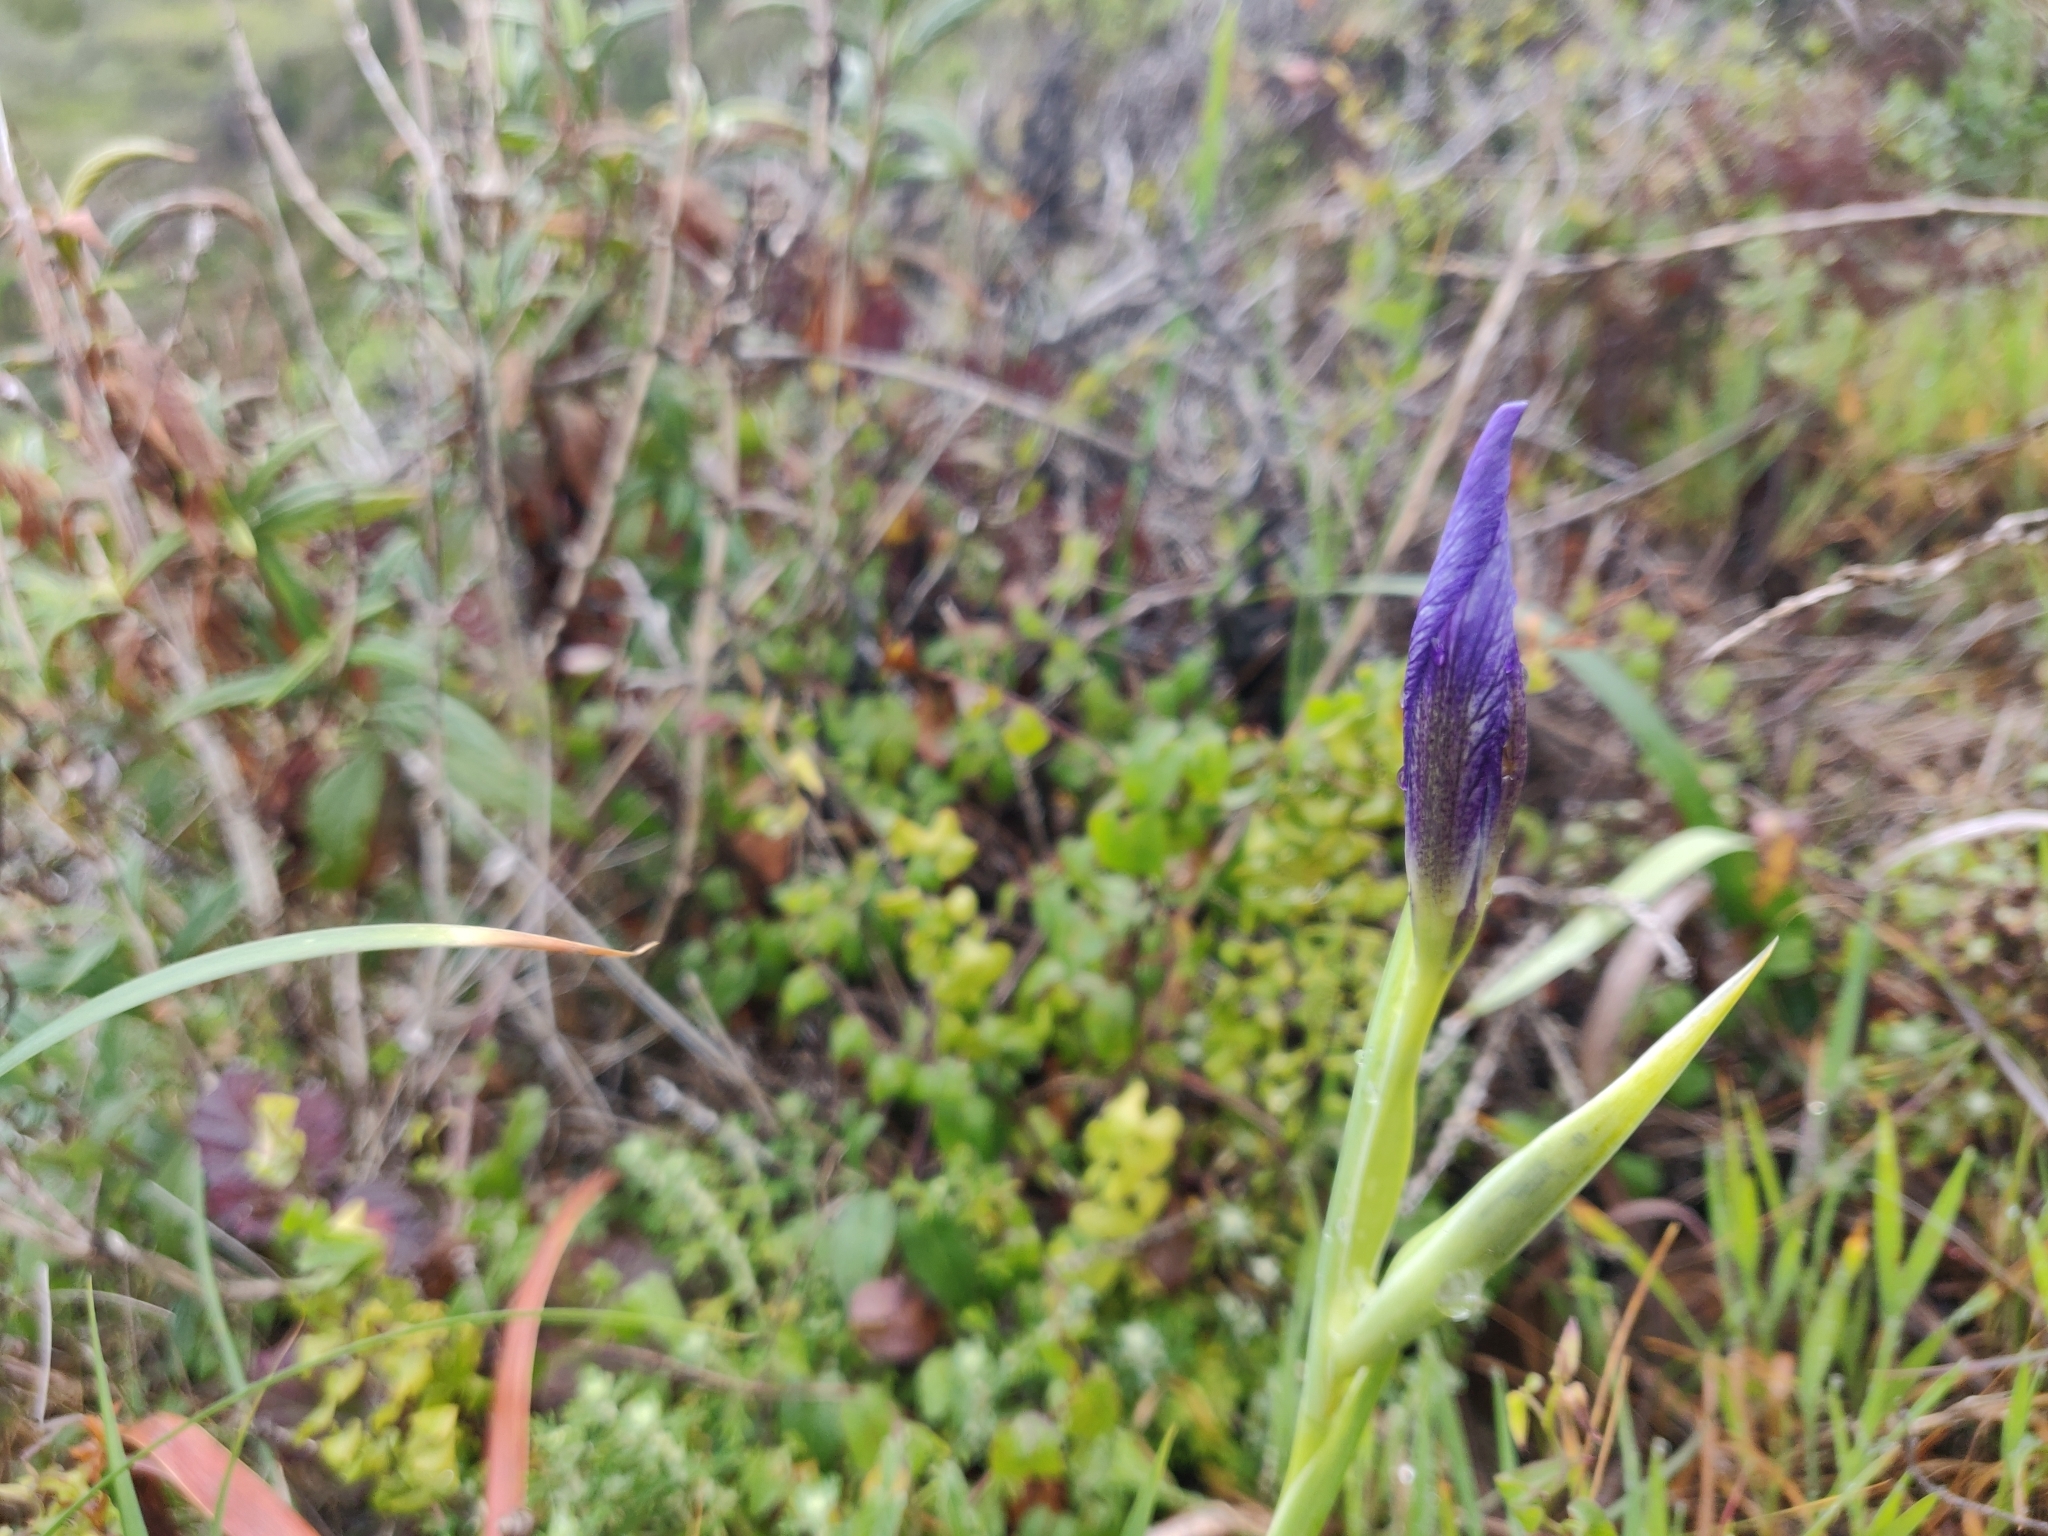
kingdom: Plantae
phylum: Tracheophyta
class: Liliopsida
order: Asparagales
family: Iridaceae
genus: Iris
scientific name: Iris douglasiana
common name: Marin iris
